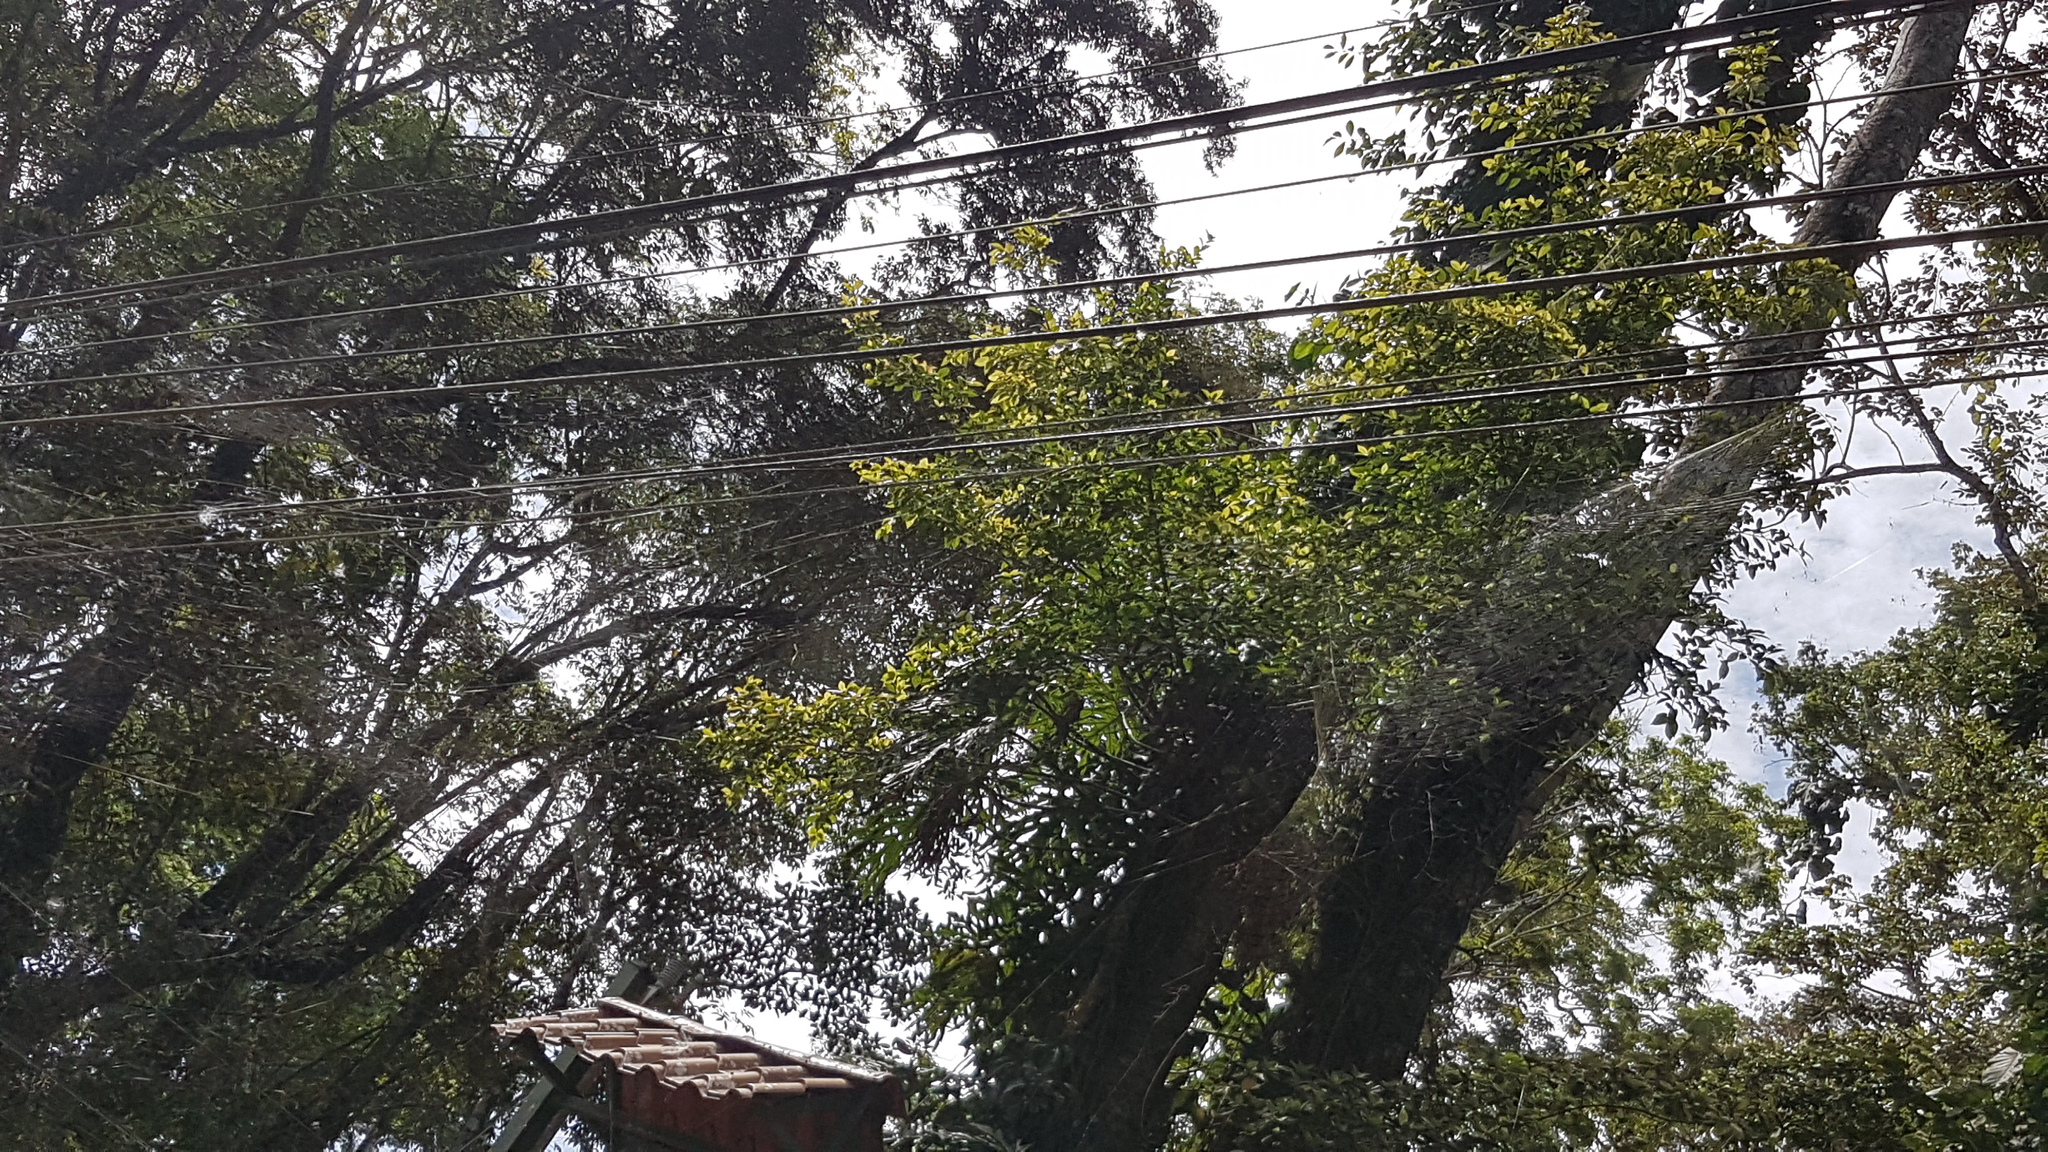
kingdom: Animalia
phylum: Arthropoda
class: Arachnida
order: Araneae
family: Araneidae
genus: Trichonephila
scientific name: Trichonephila clavipes
